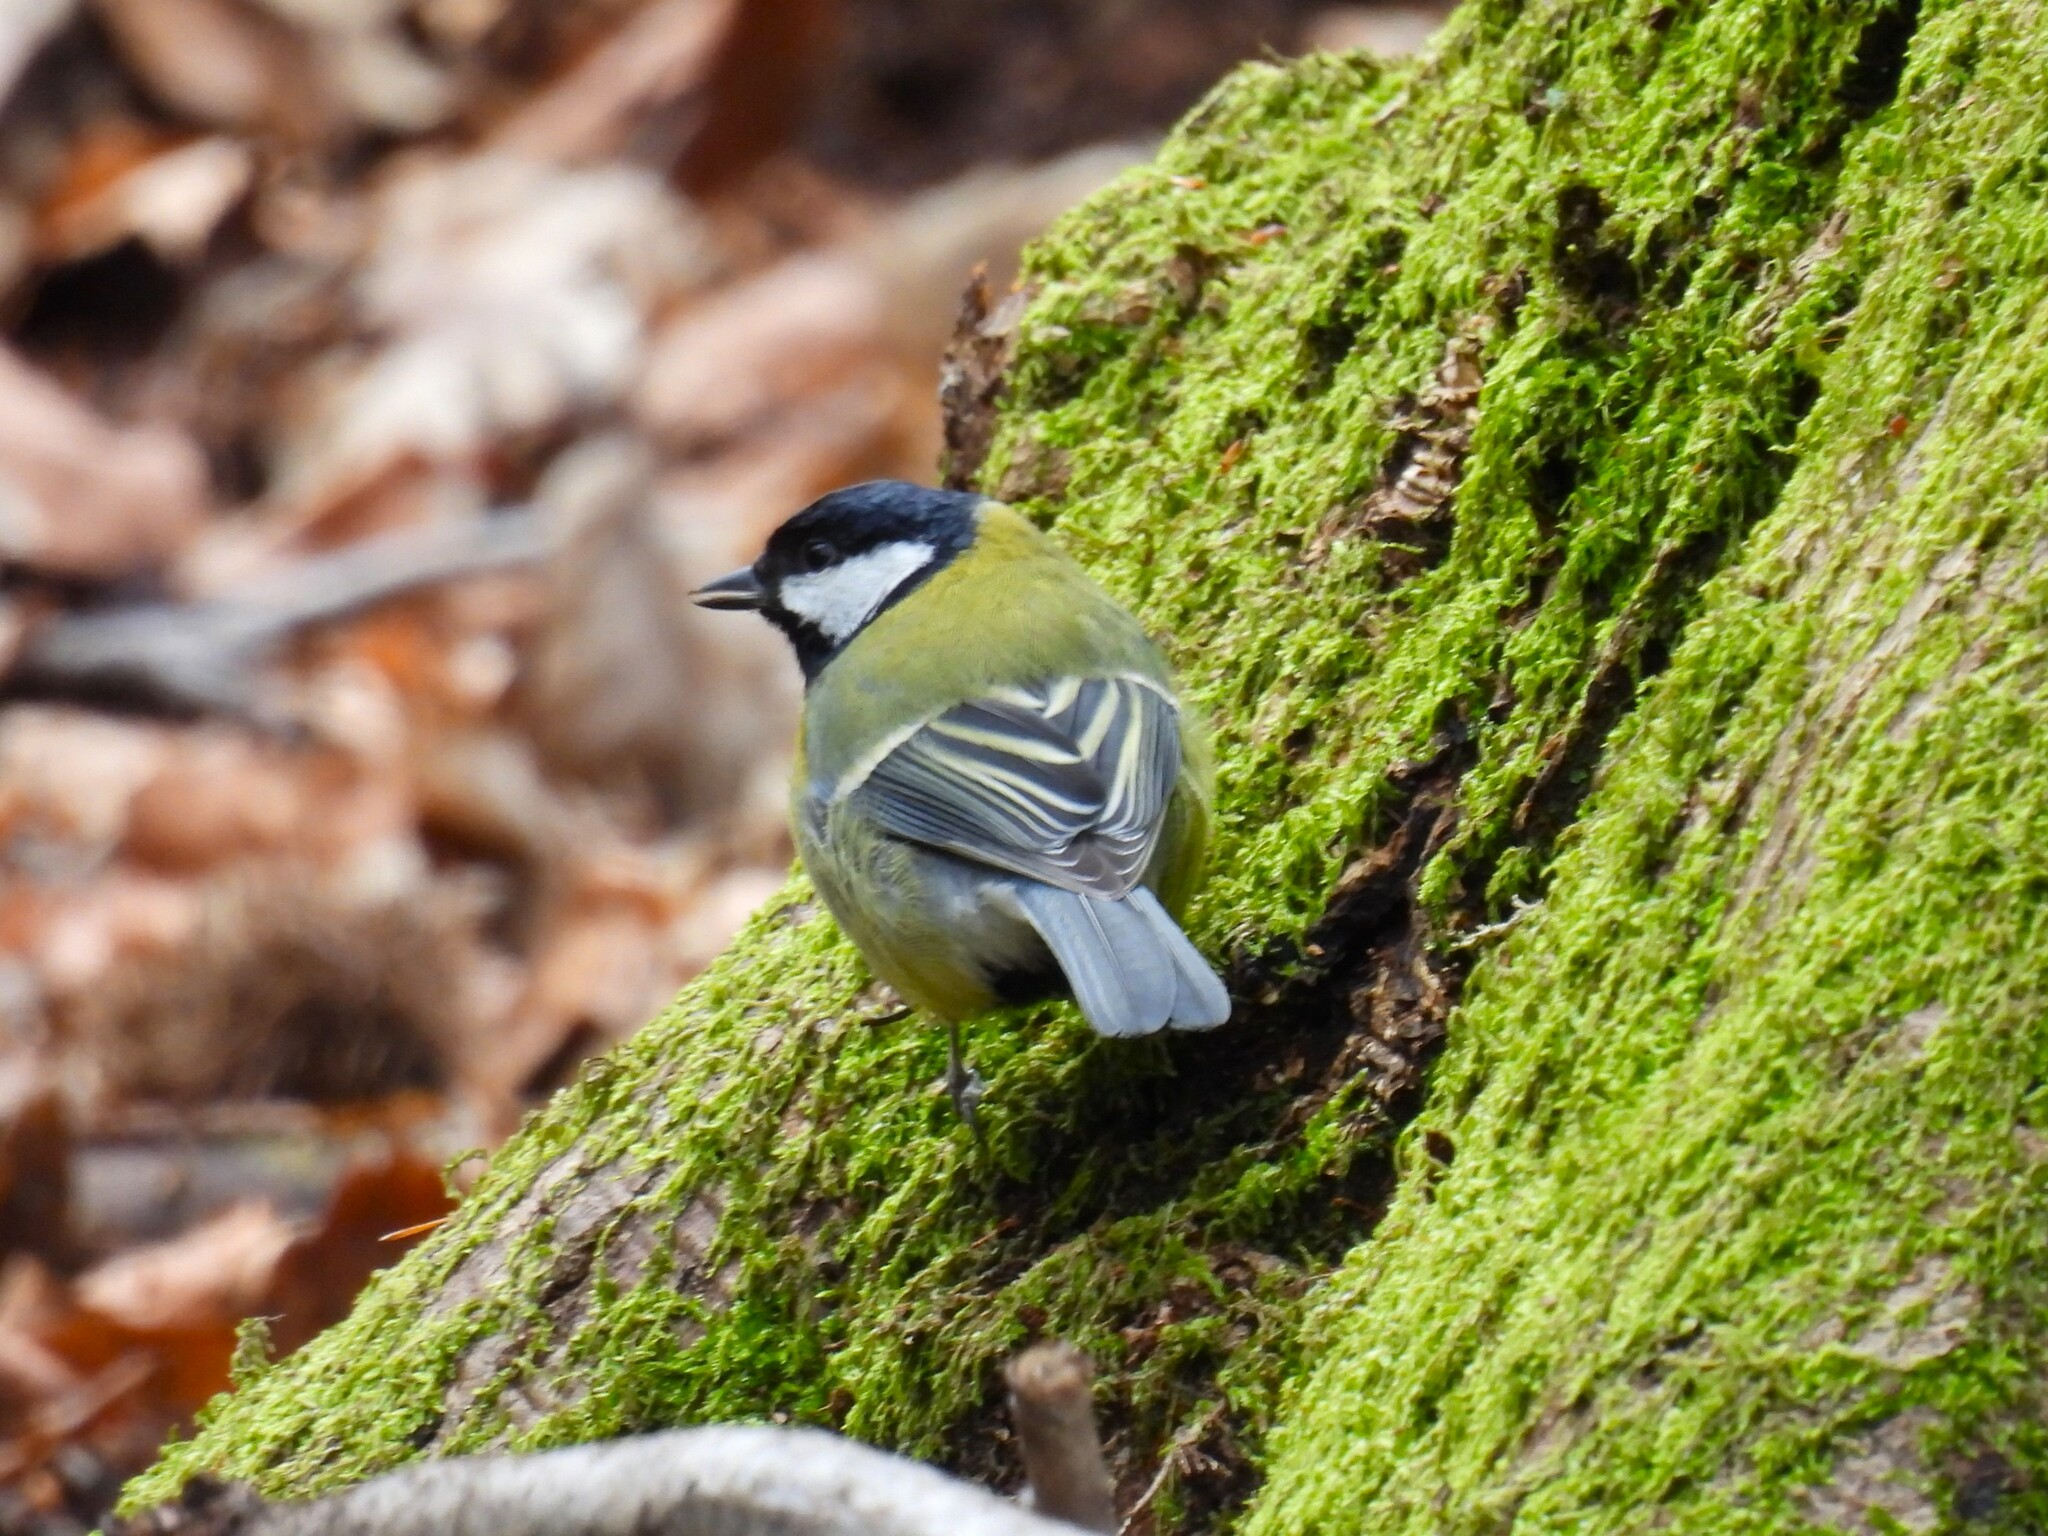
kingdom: Animalia
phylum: Chordata
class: Aves
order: Passeriformes
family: Paridae
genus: Parus
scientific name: Parus major
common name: Great tit
